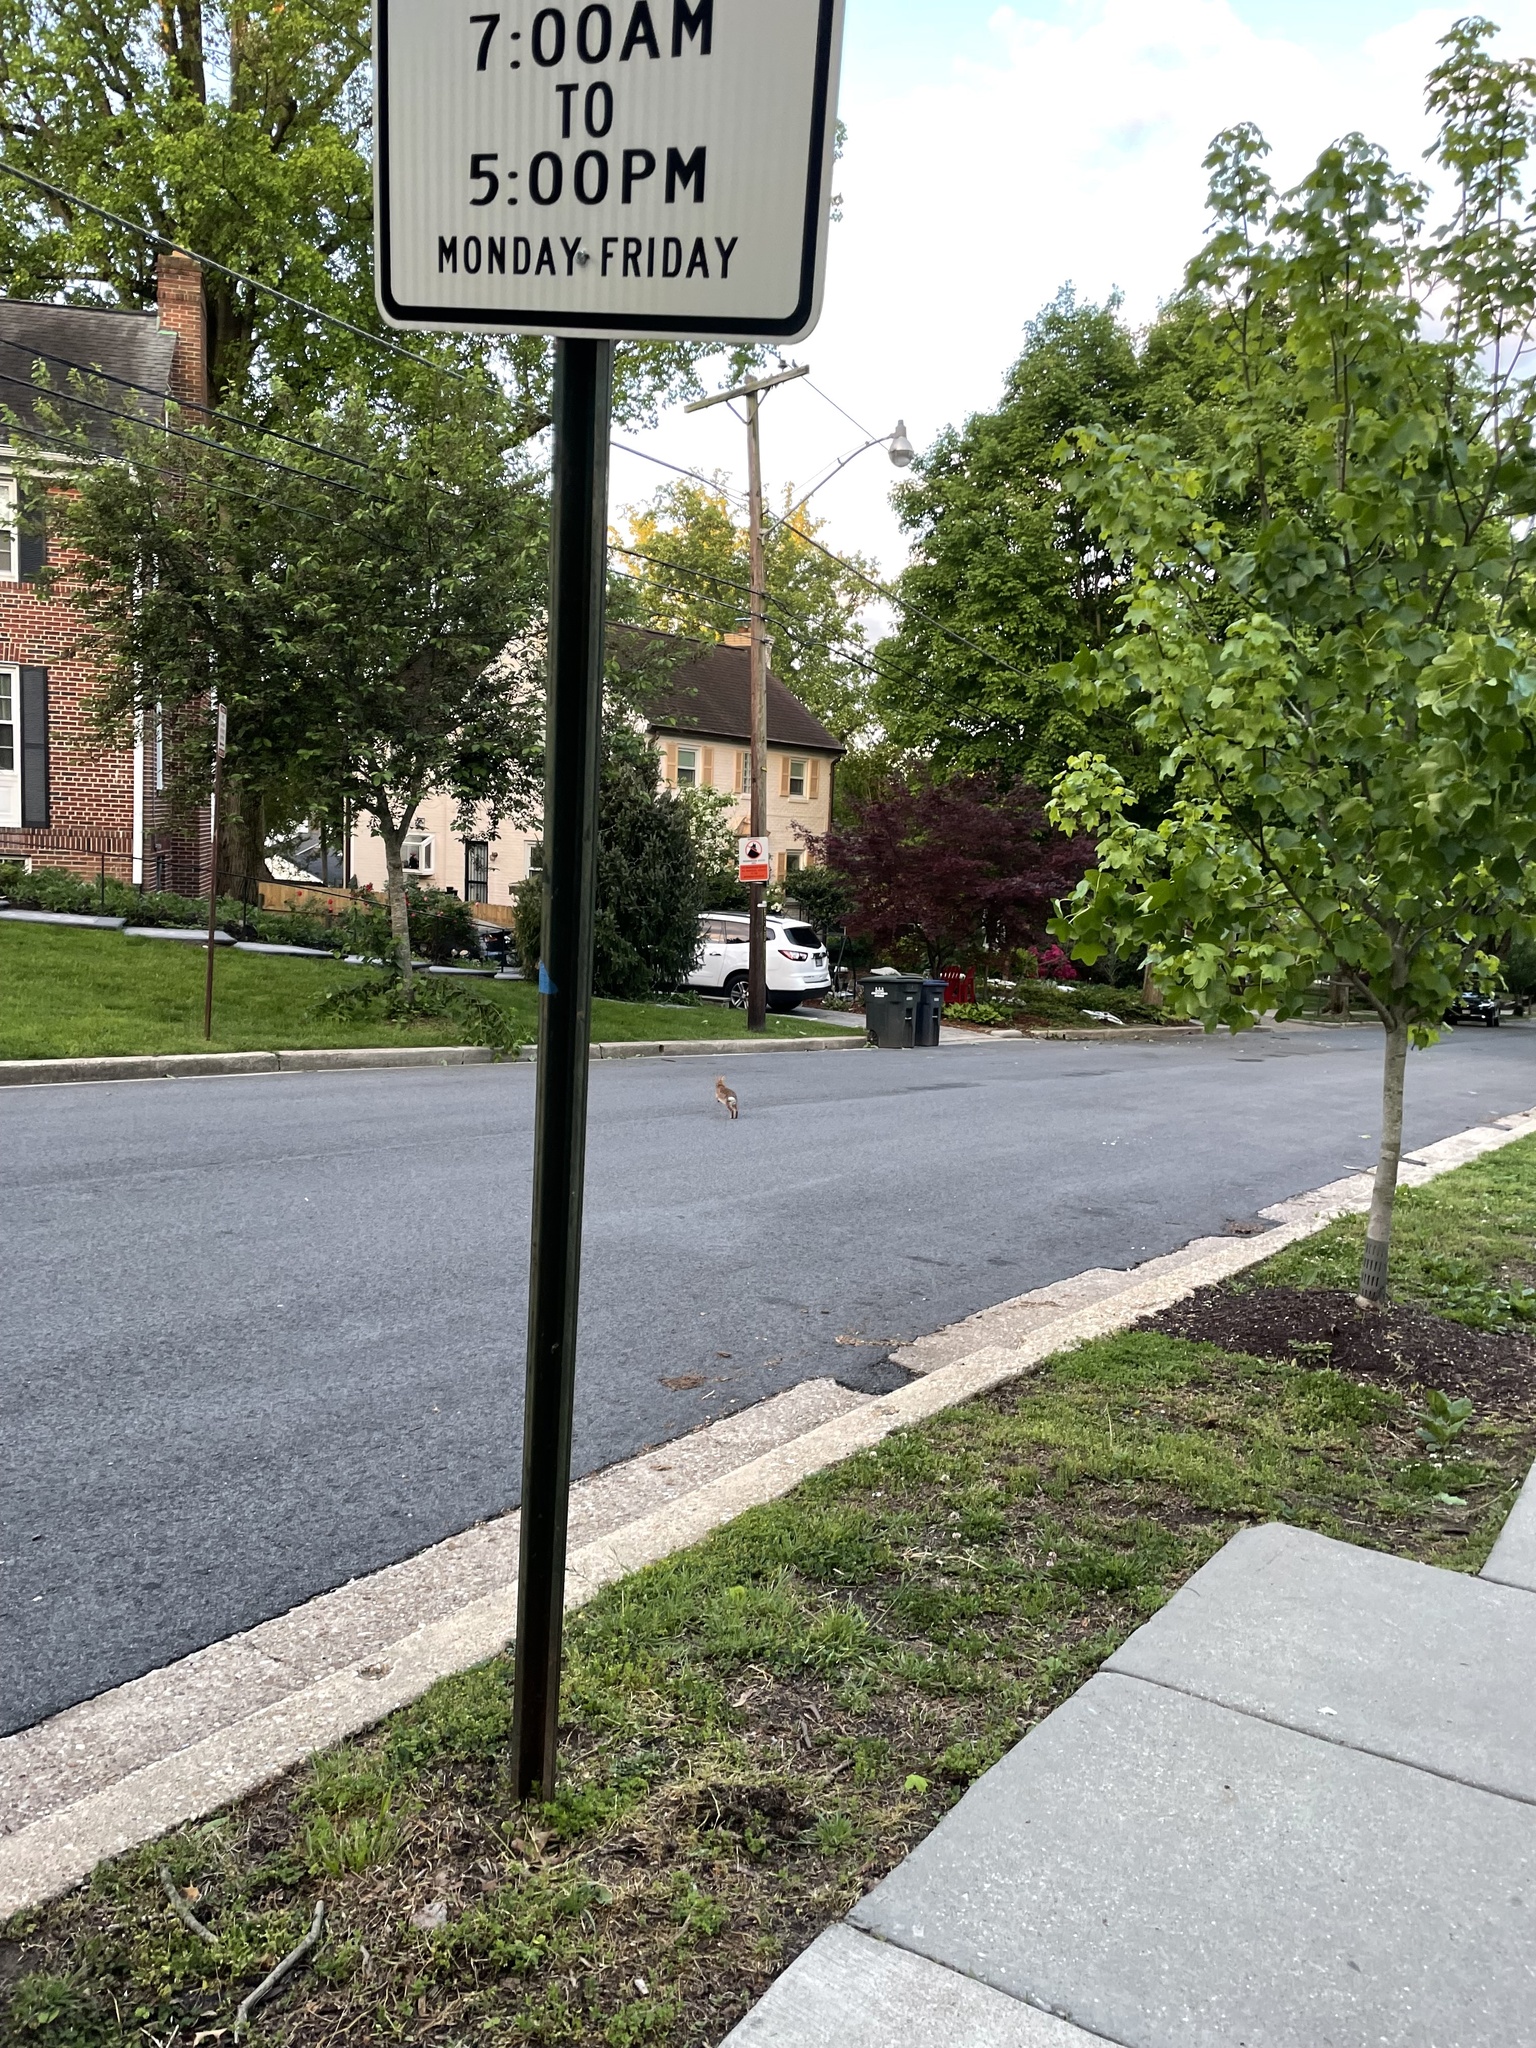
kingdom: Animalia
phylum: Chordata
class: Mammalia
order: Lagomorpha
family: Leporidae
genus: Sylvilagus
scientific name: Sylvilagus floridanus
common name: Eastern cottontail
